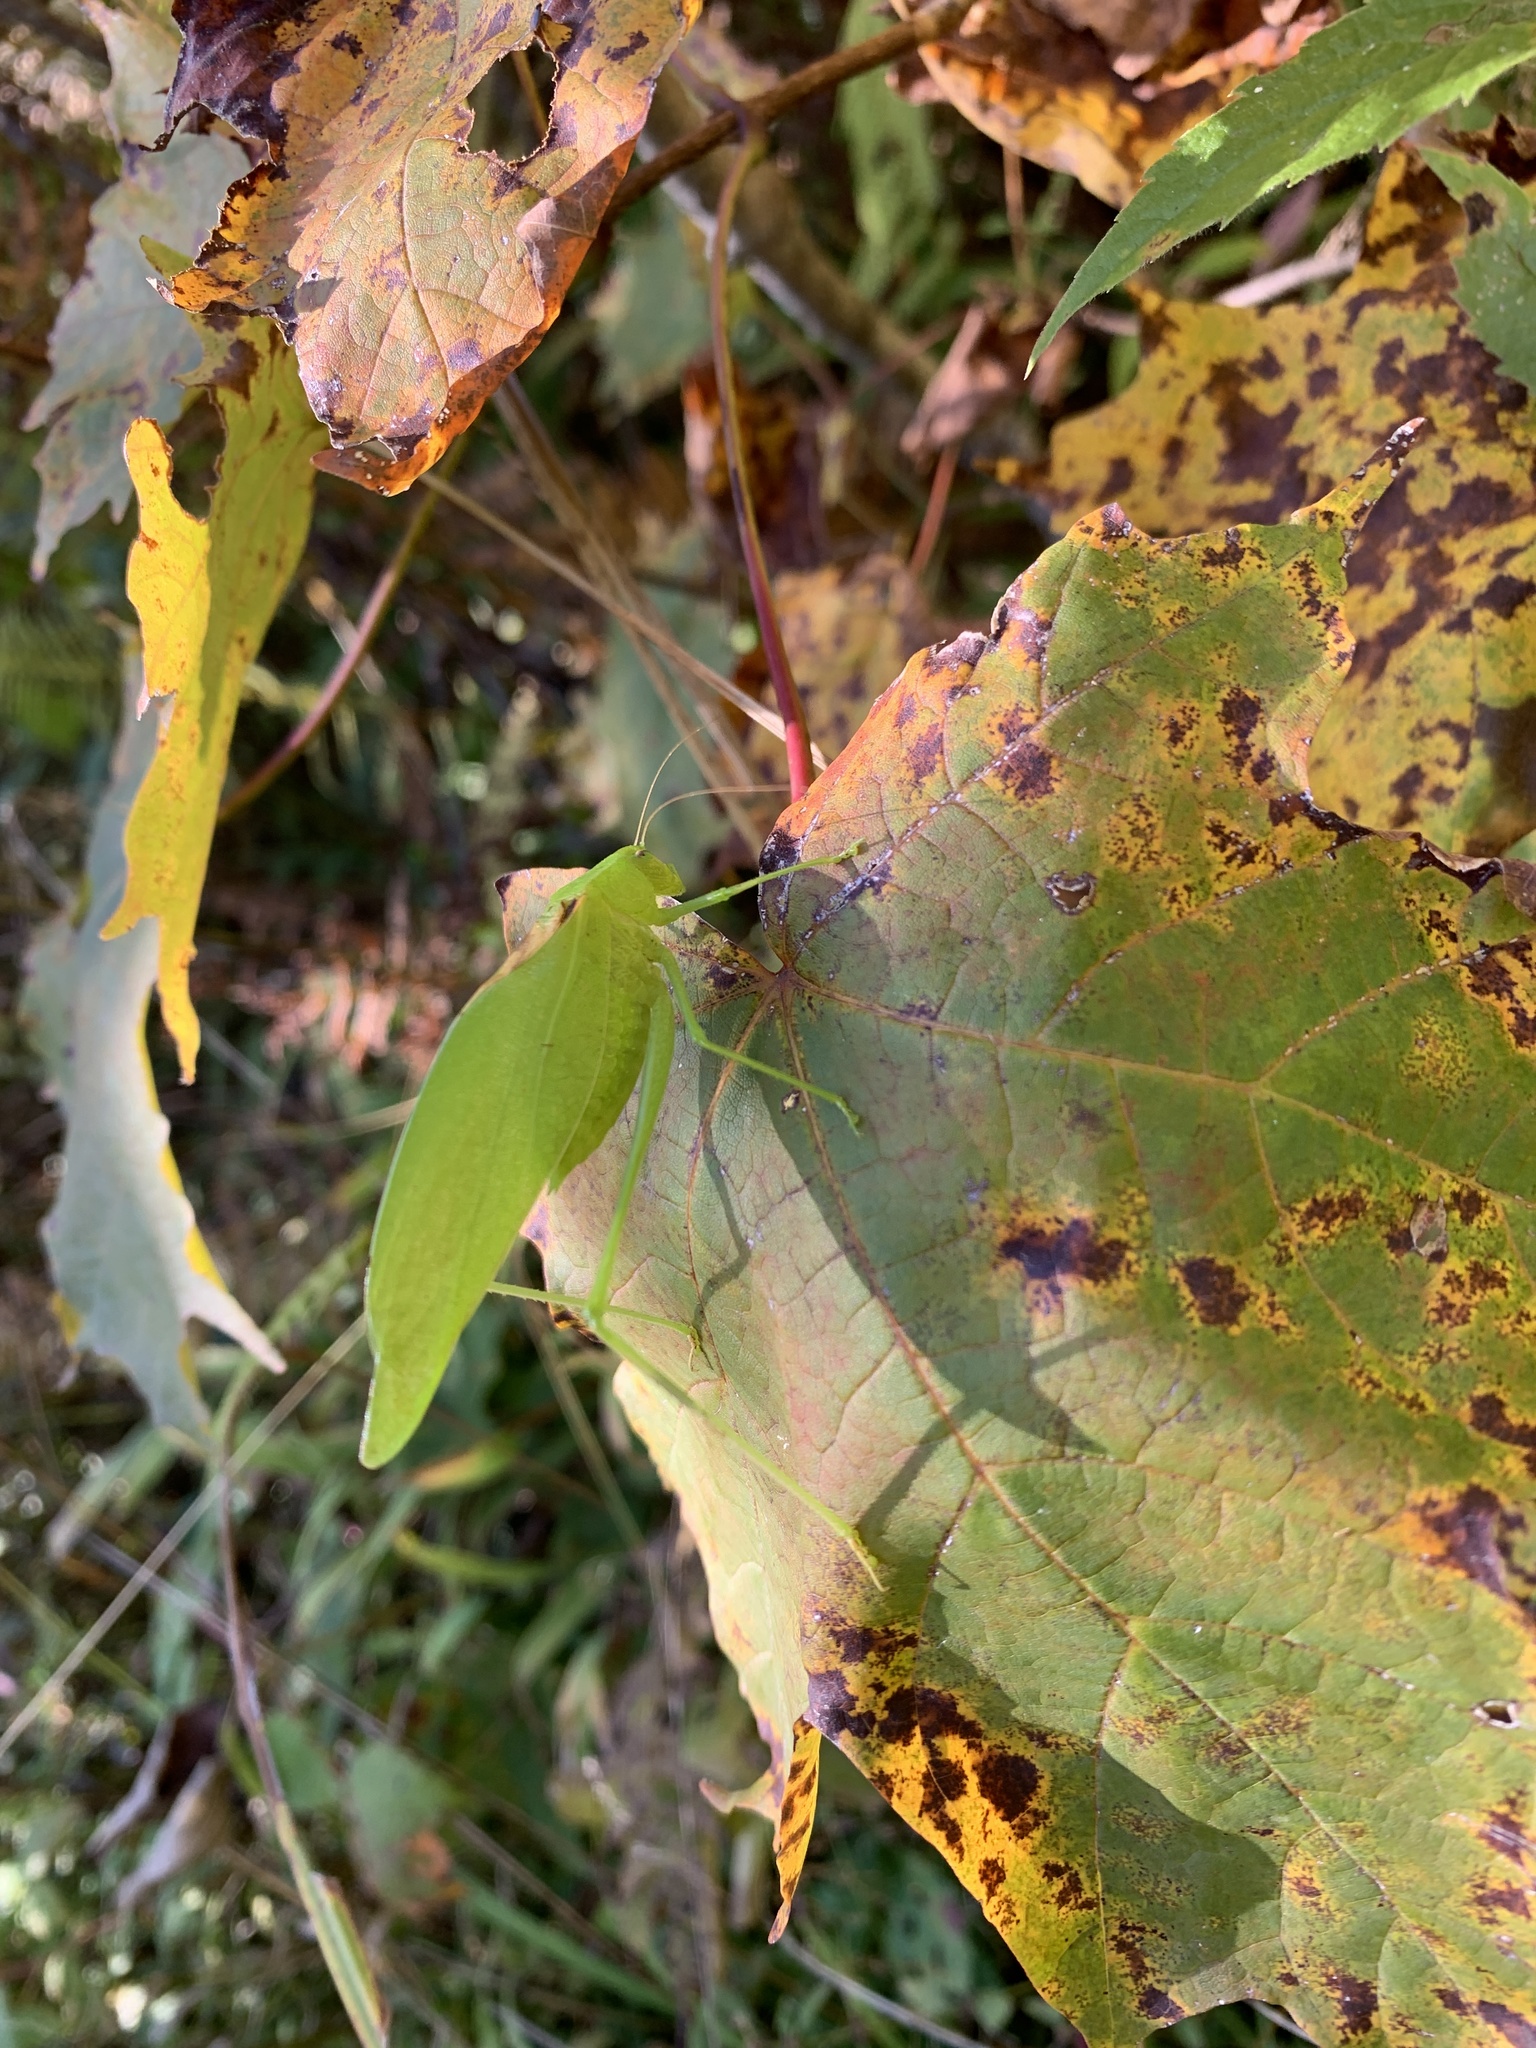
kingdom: Animalia
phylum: Arthropoda
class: Insecta
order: Orthoptera
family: Tettigoniidae
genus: Amblycorypha
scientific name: Amblycorypha oblongifolia
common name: Oblong-winged katydid
